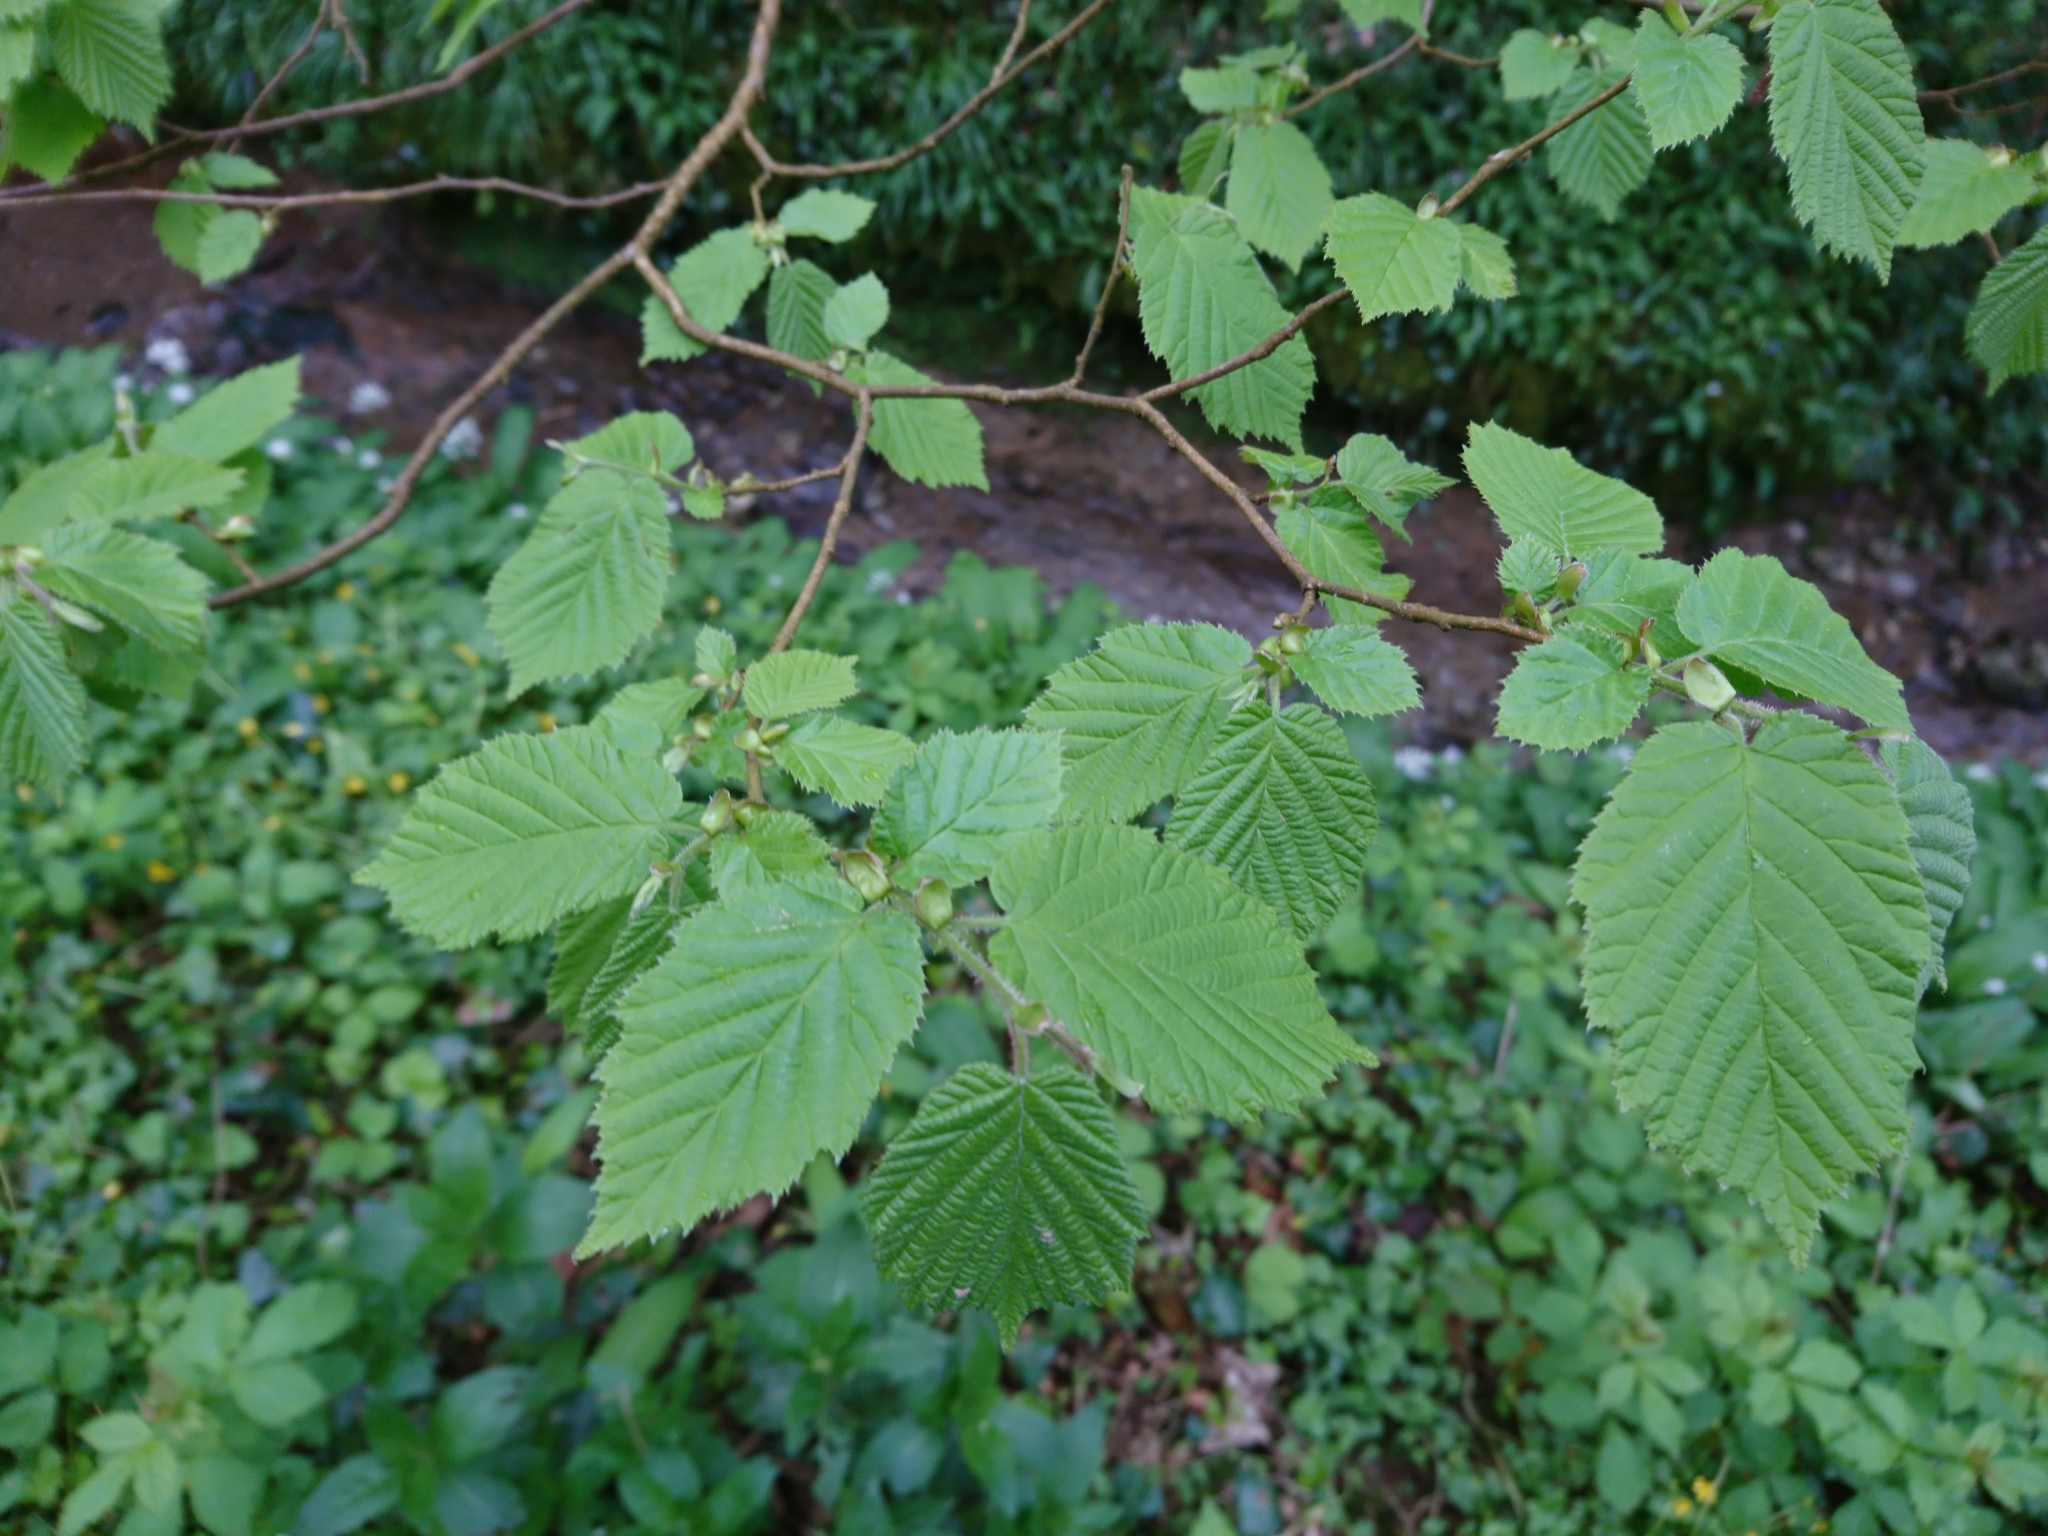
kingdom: Plantae
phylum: Tracheophyta
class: Magnoliopsida
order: Fagales
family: Betulaceae
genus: Corylus
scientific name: Corylus avellana
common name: European hazel
